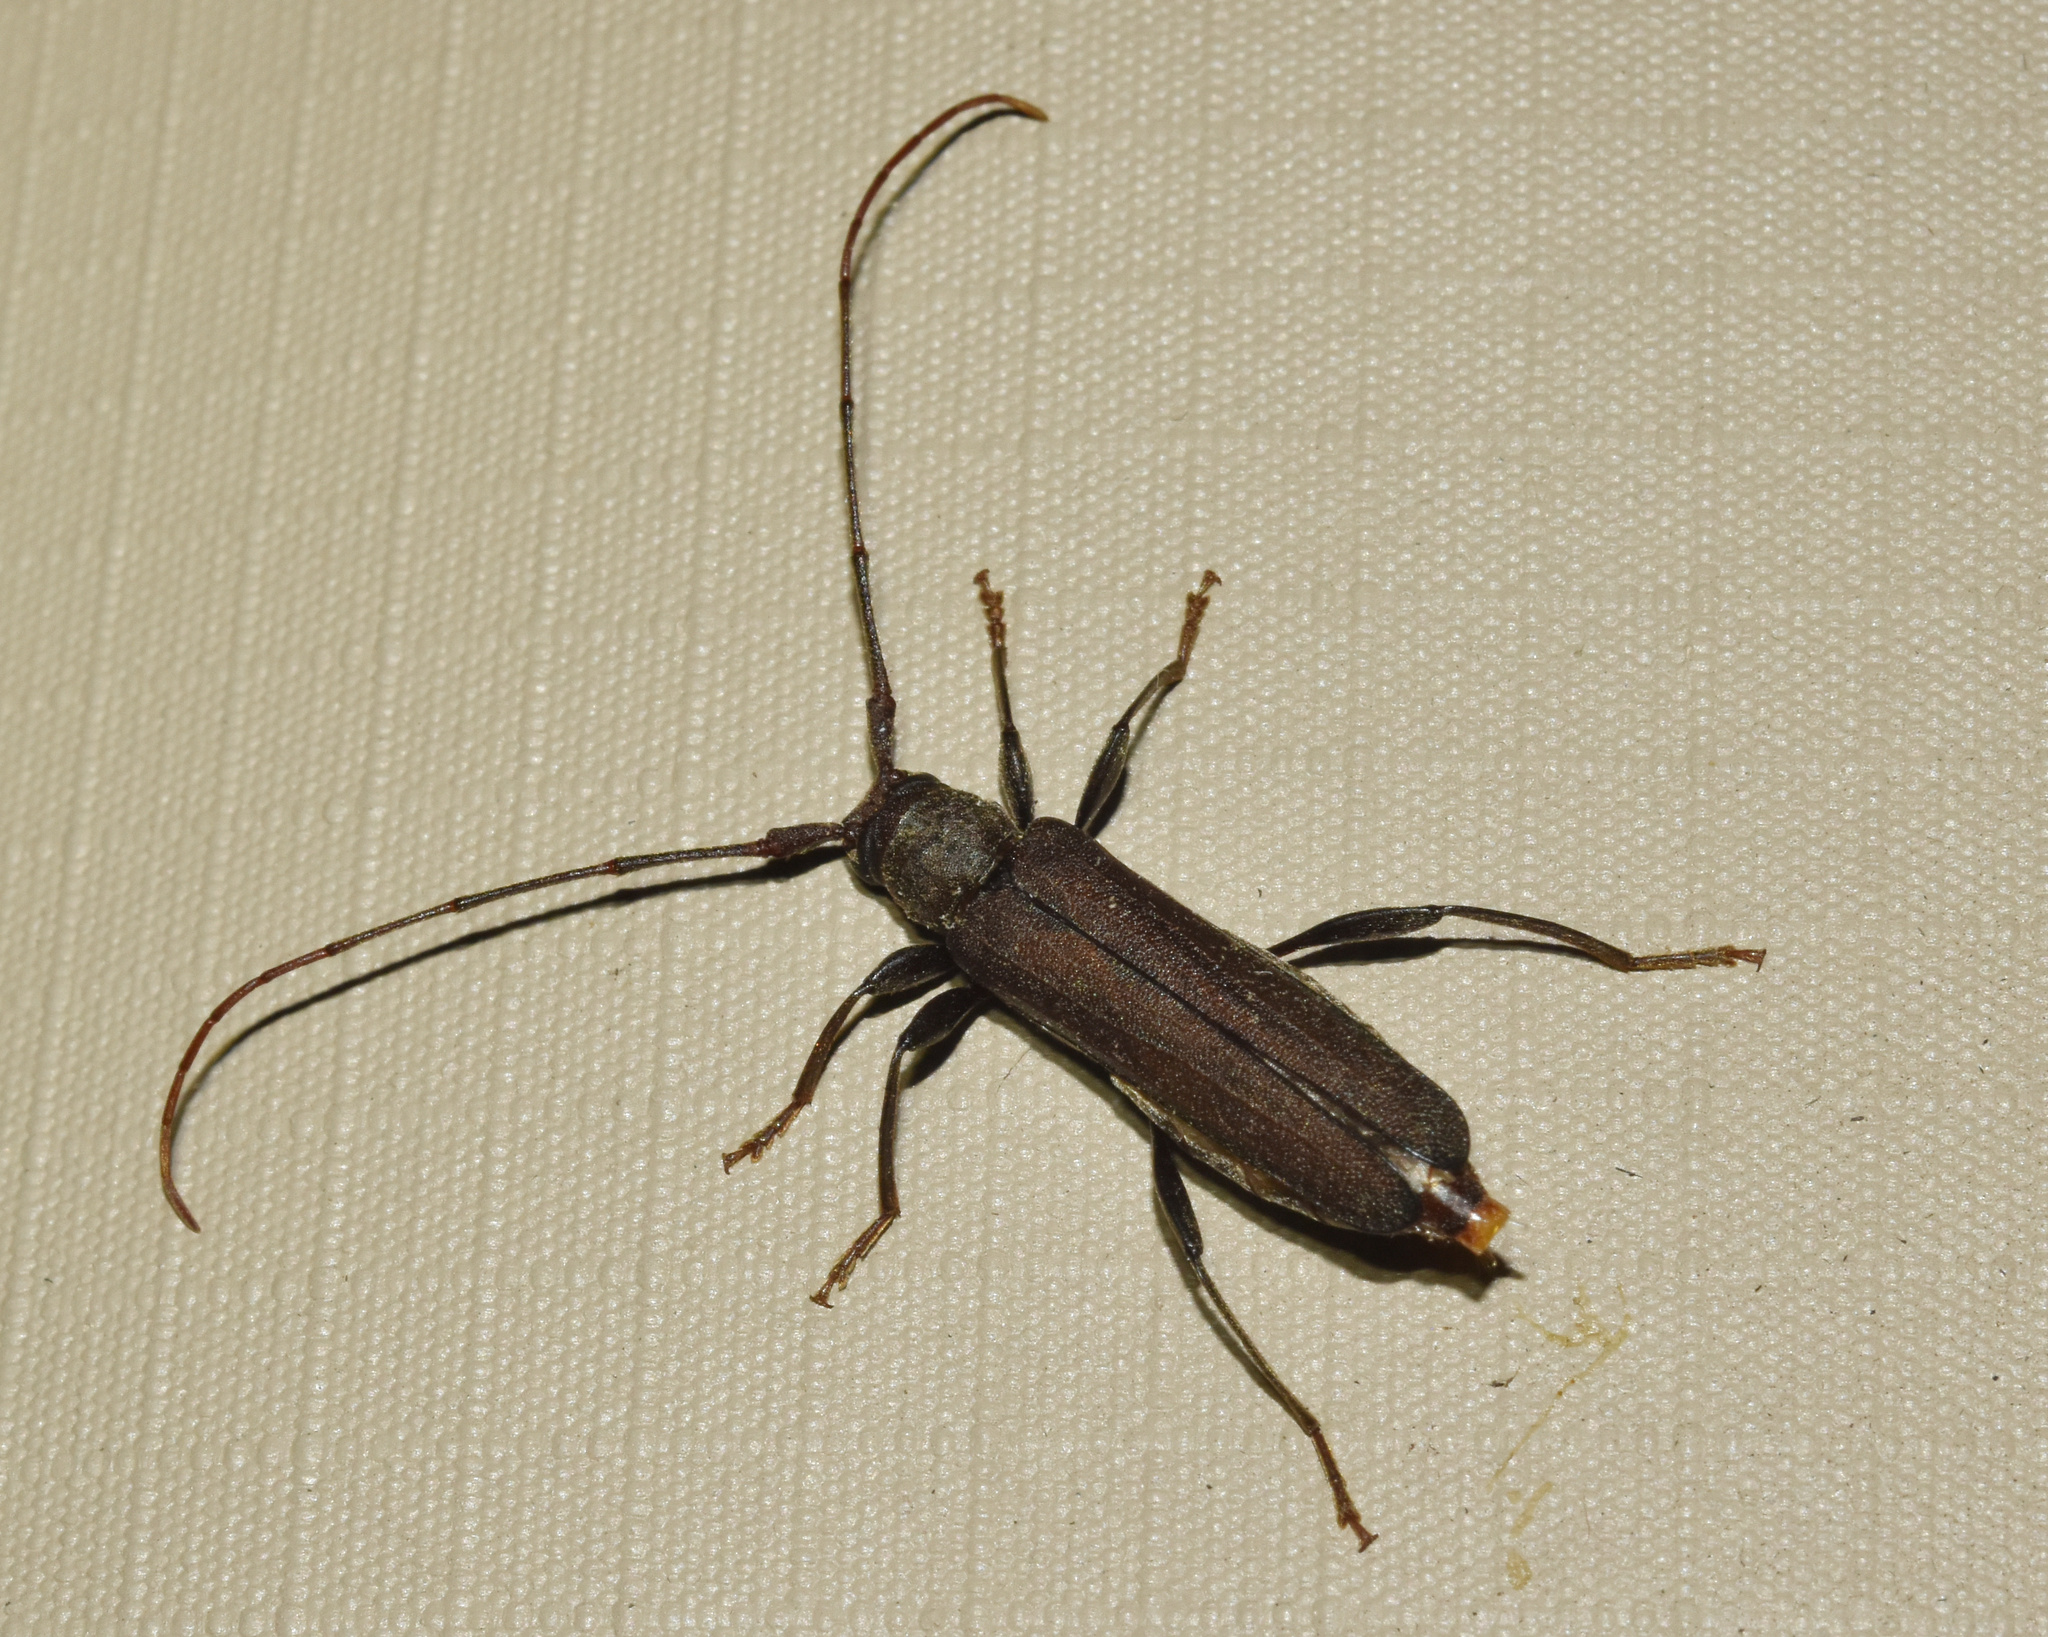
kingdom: Animalia
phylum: Arthropoda
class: Insecta
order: Coleoptera
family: Cerambycidae
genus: Xystrocera
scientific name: Xystrocera erosa
